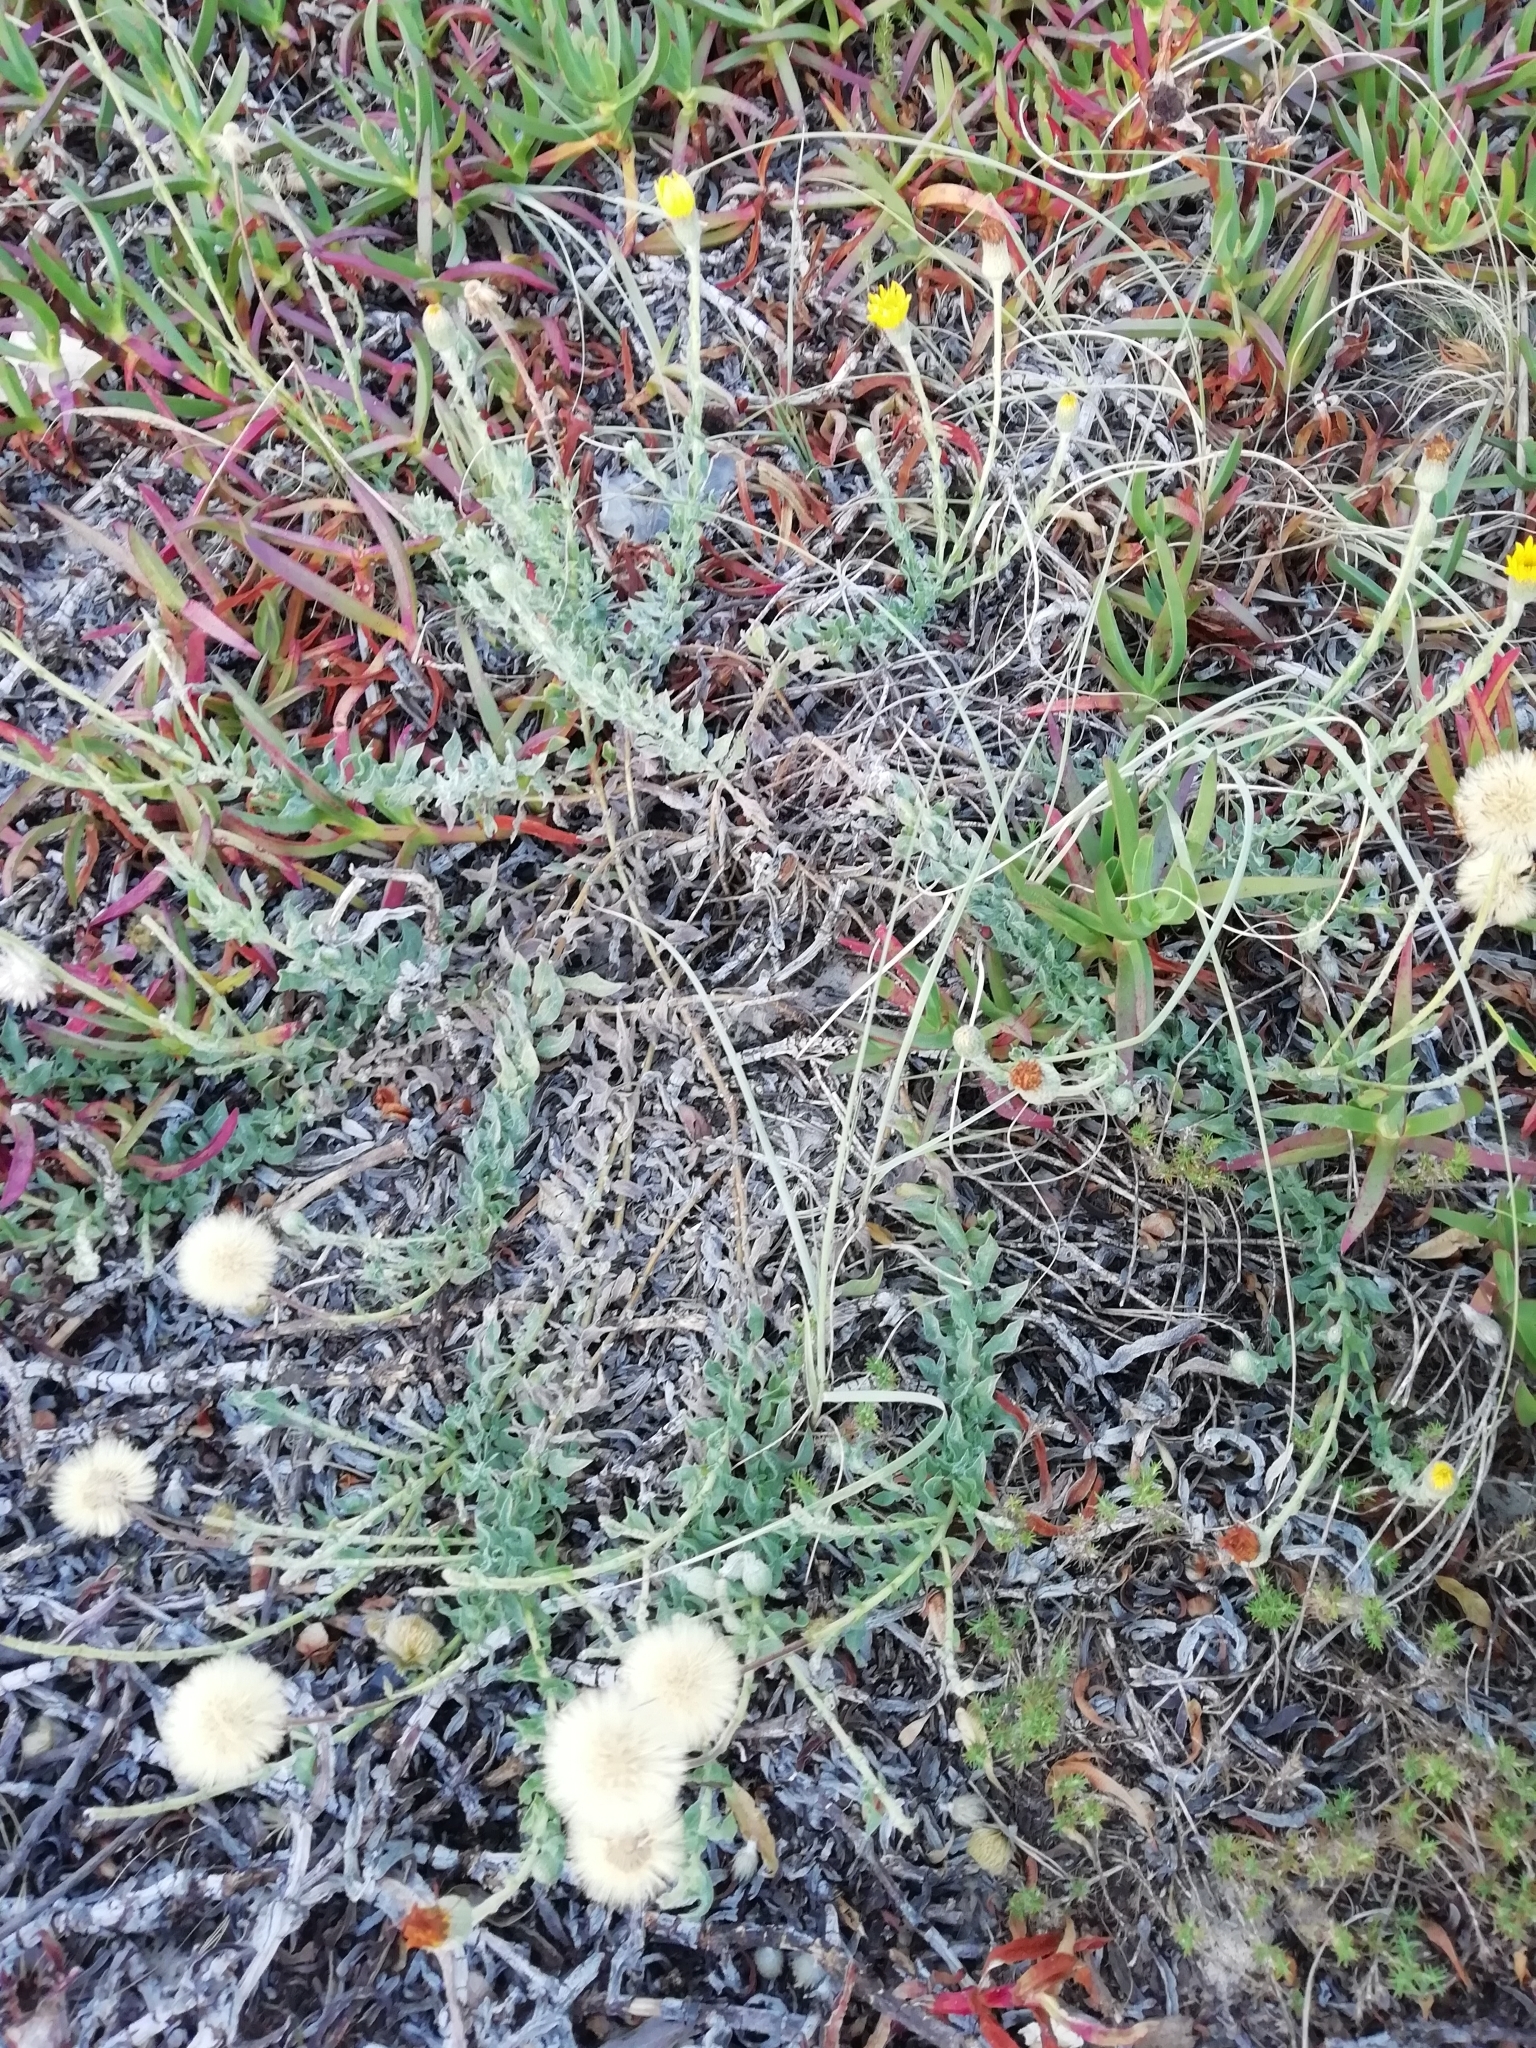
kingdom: Plantae
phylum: Tracheophyta
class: Magnoliopsida
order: Asterales
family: Asteraceae
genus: Noticastrum
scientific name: Noticastrum acuminatum
